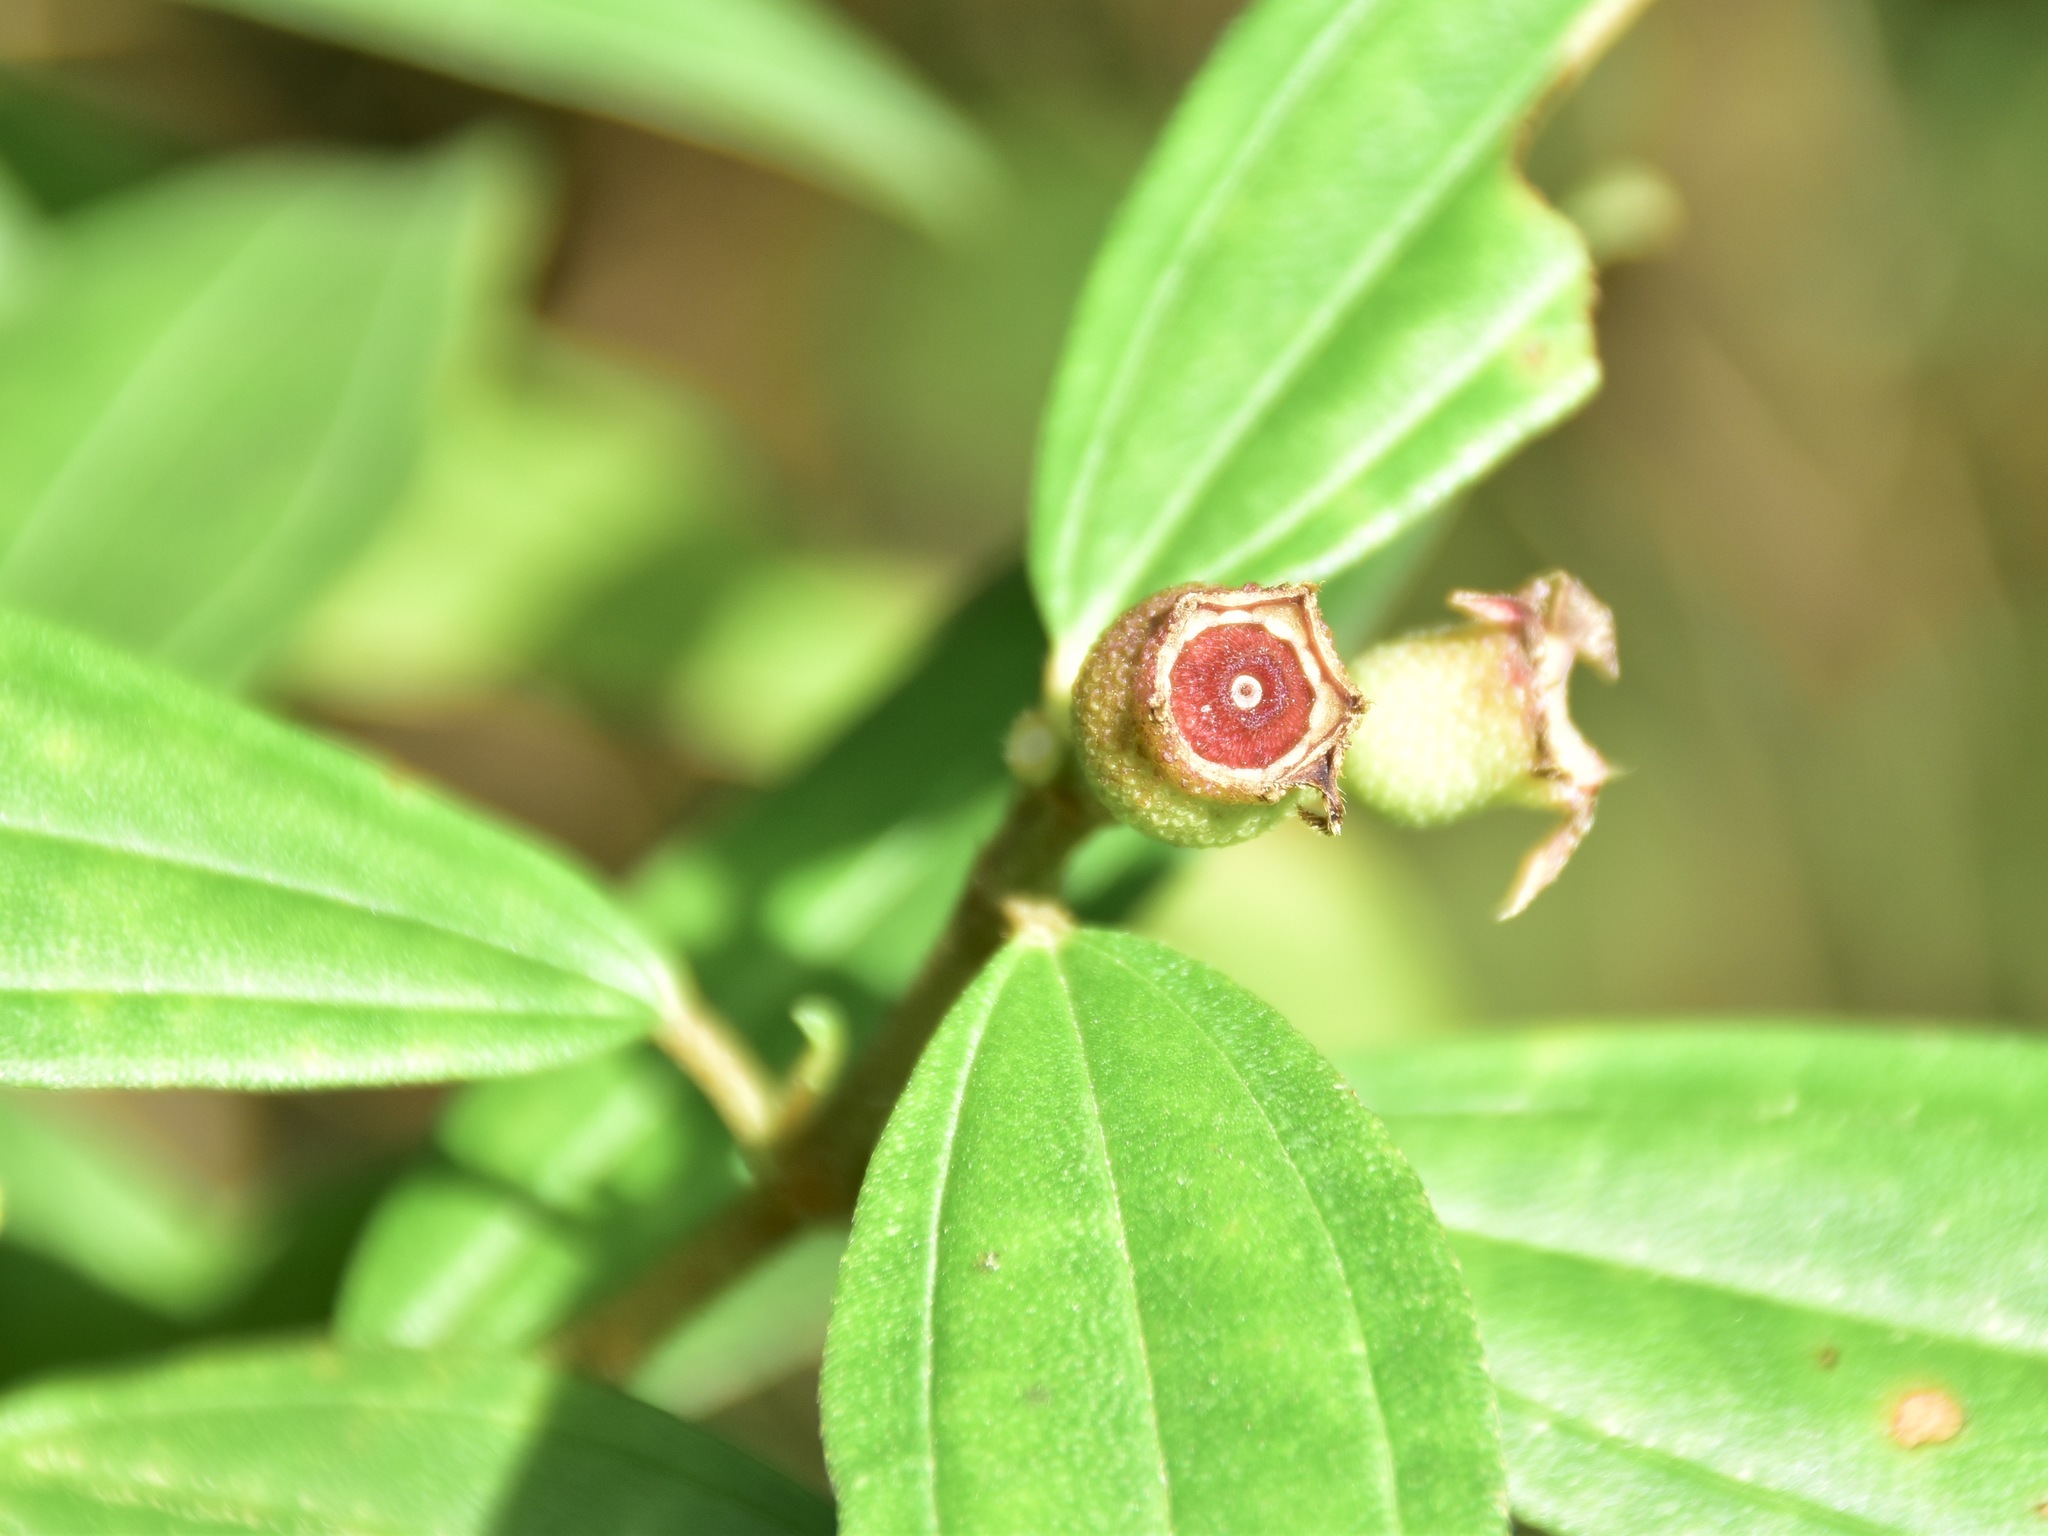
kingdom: Plantae
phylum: Tracheophyta
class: Magnoliopsida
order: Myrtales
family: Melastomataceae
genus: Melastoma
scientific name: Melastoma malabathricum
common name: Indian-rhododendron
